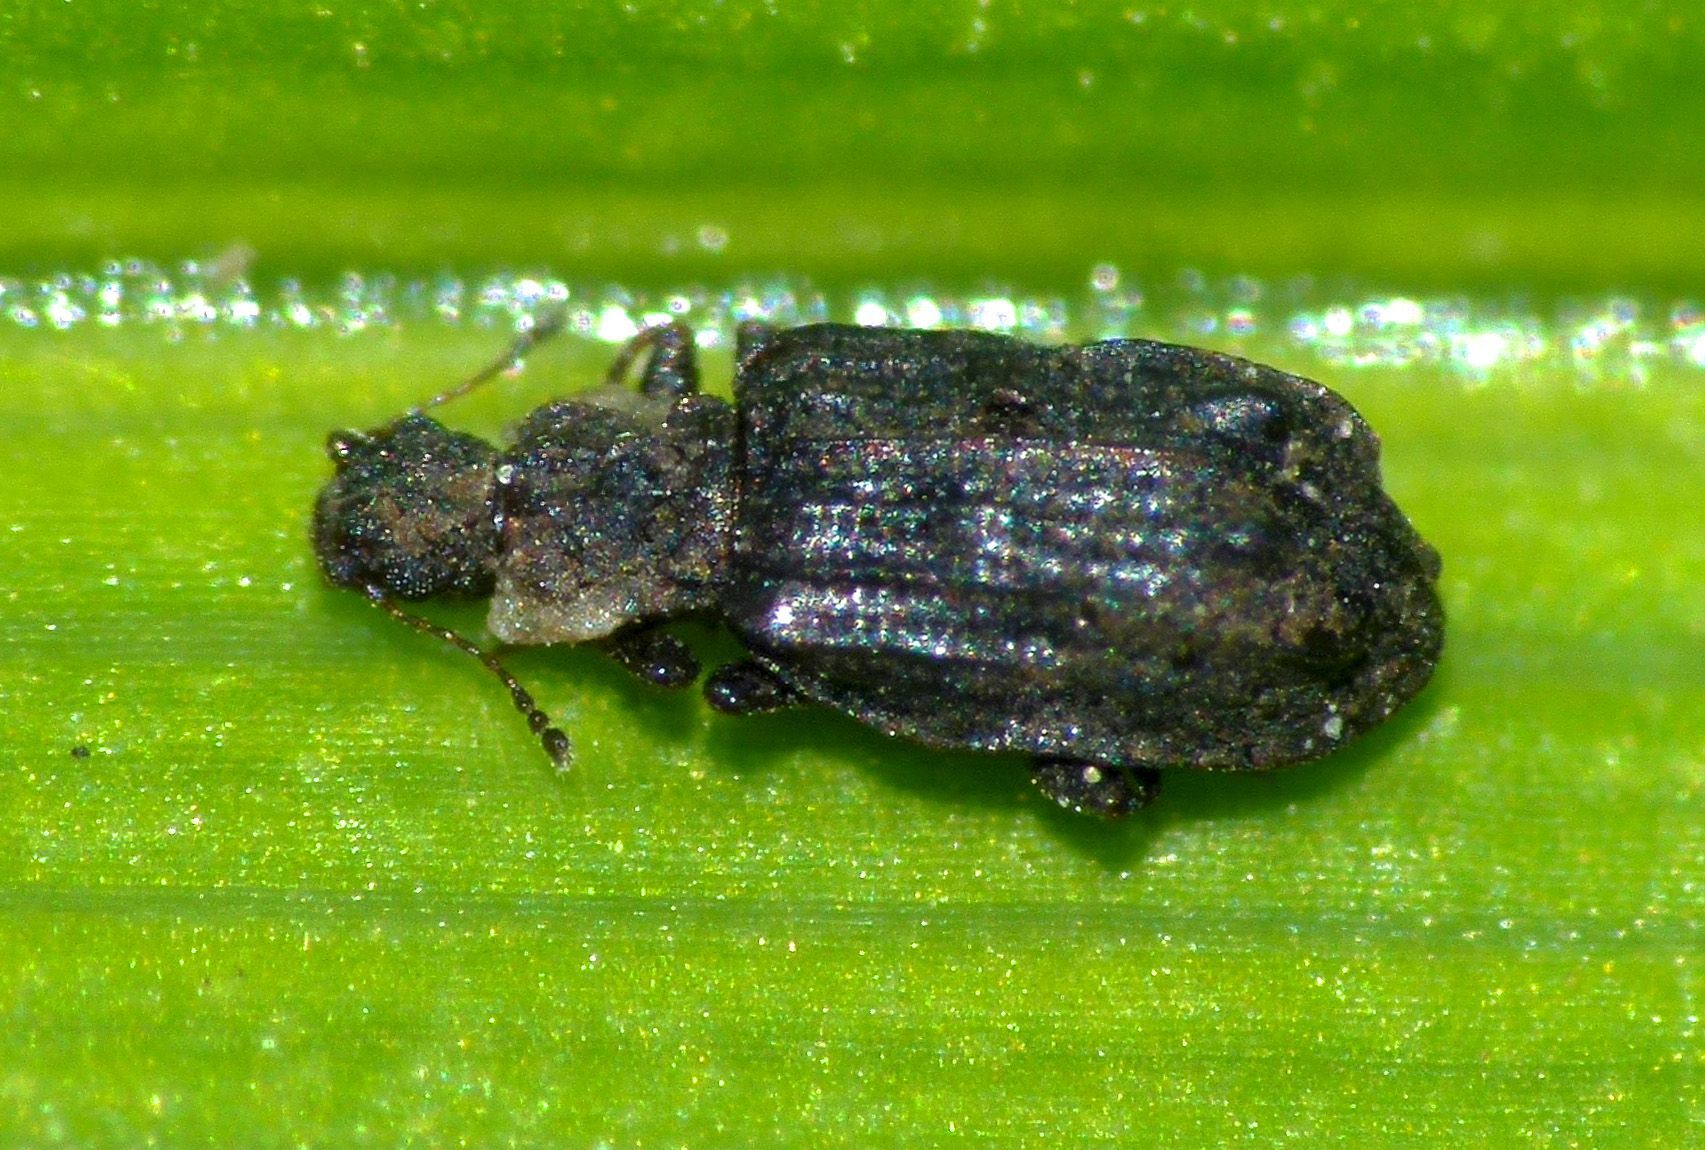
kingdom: Animalia
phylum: Arthropoda
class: Insecta
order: Coleoptera
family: Latridiidae
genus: Cartodere
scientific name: Cartodere nodifer
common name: Humpbacked minute scavenger beetle
